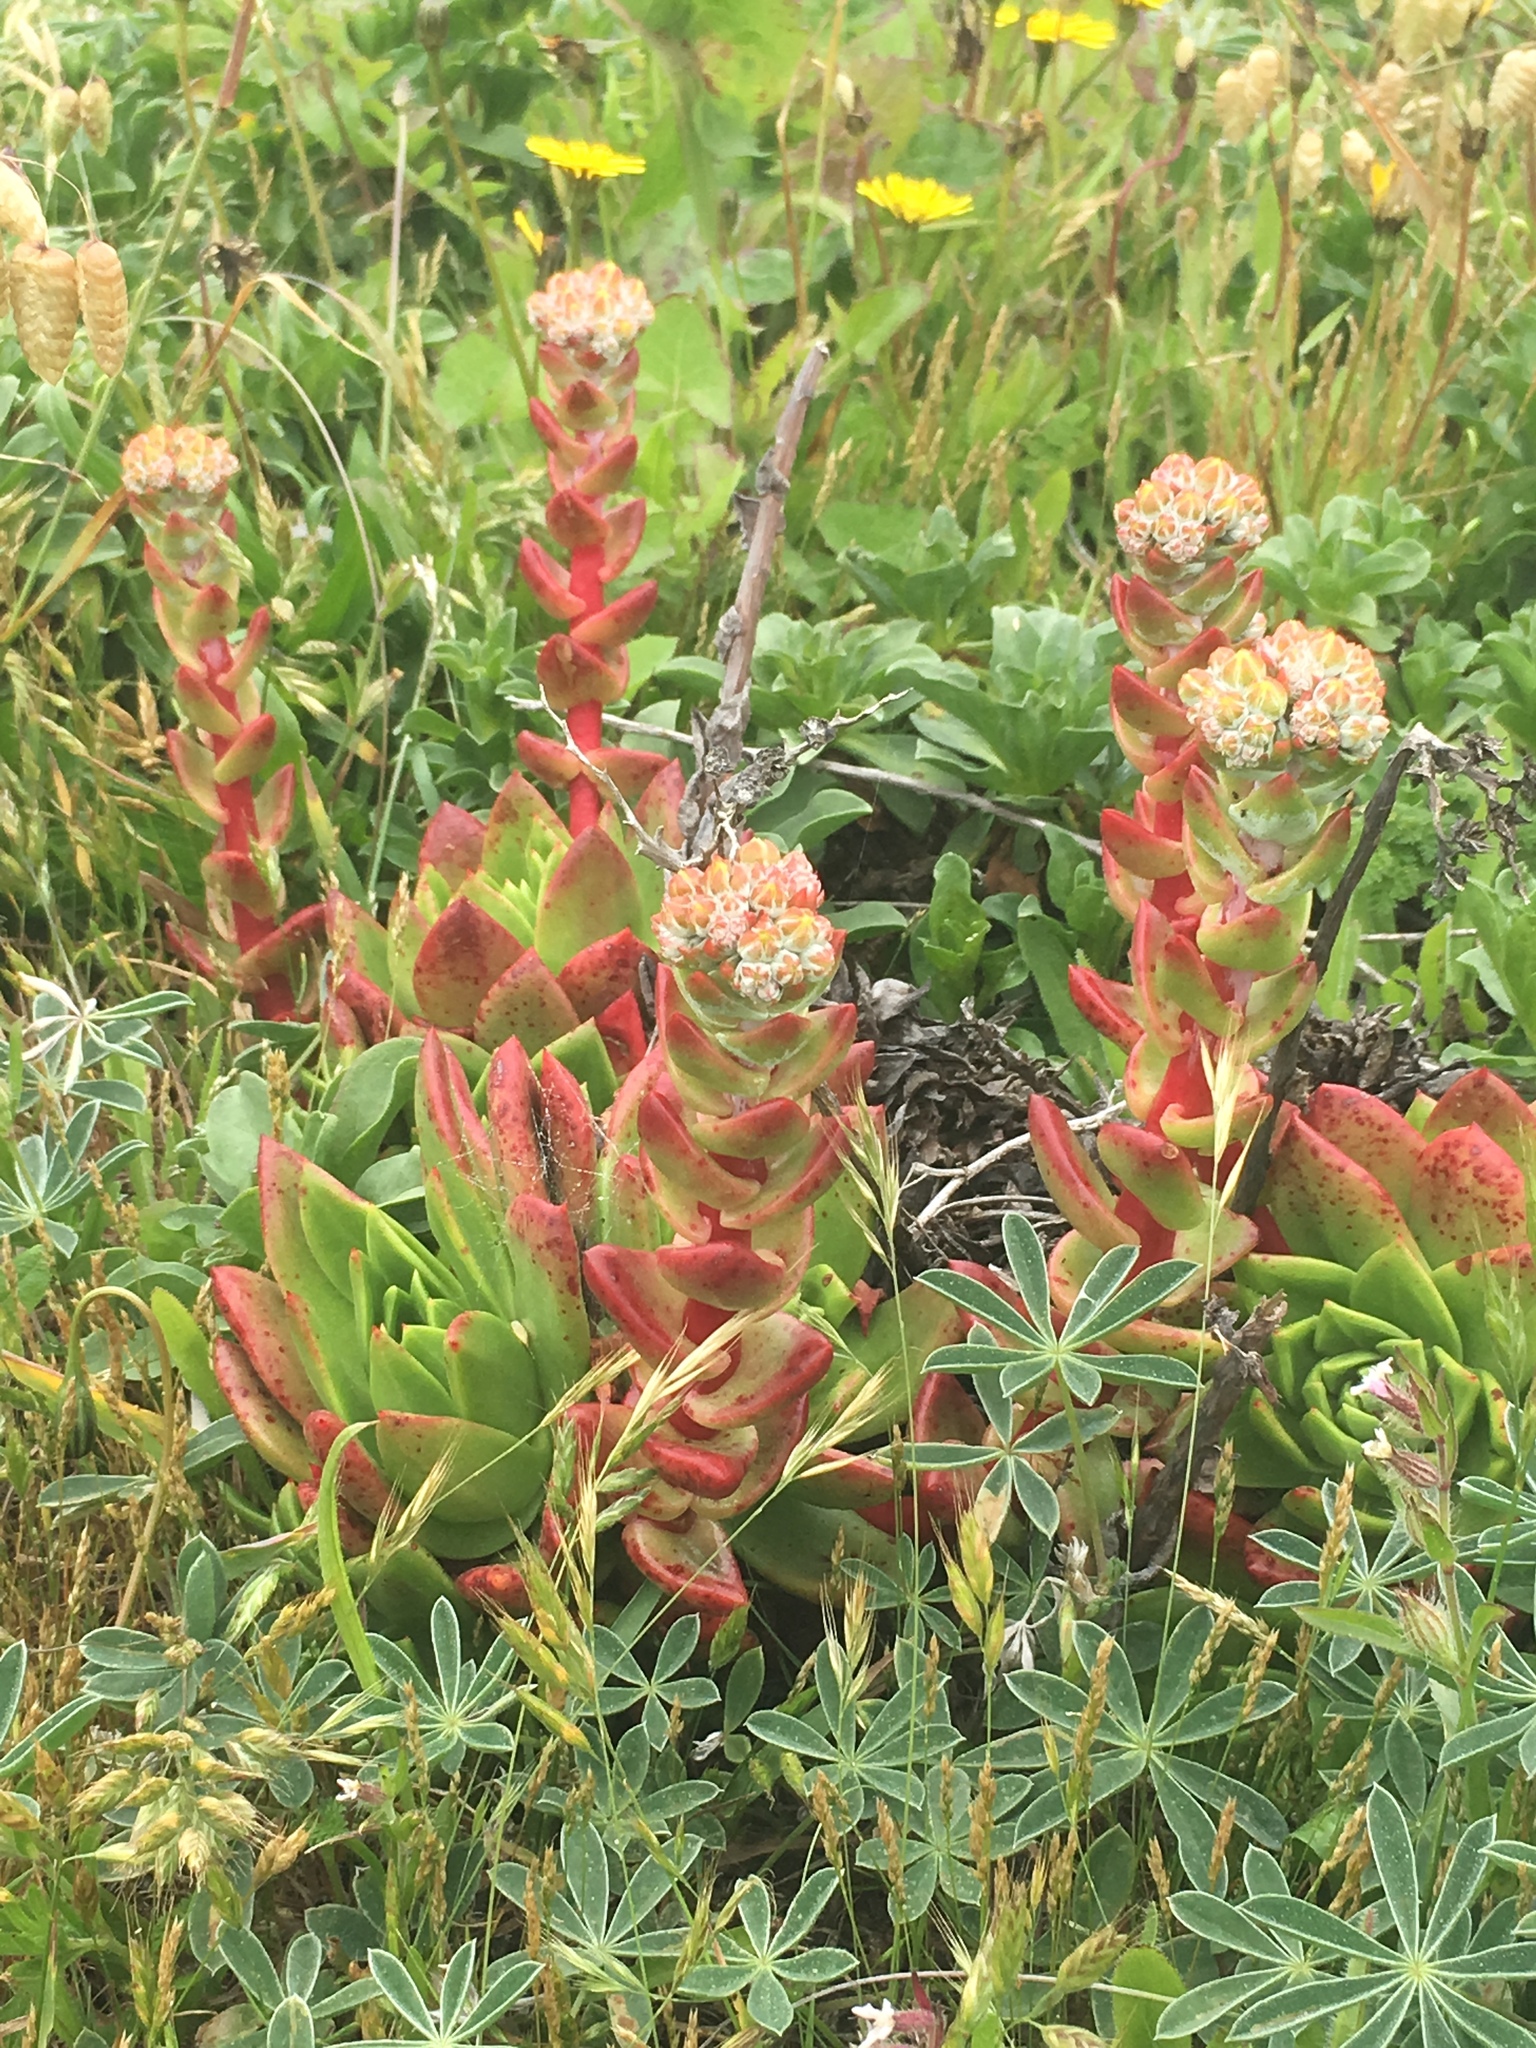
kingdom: Plantae
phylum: Tracheophyta
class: Magnoliopsida
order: Saxifragales
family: Crassulaceae
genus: Dudleya
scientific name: Dudleya farinosa
